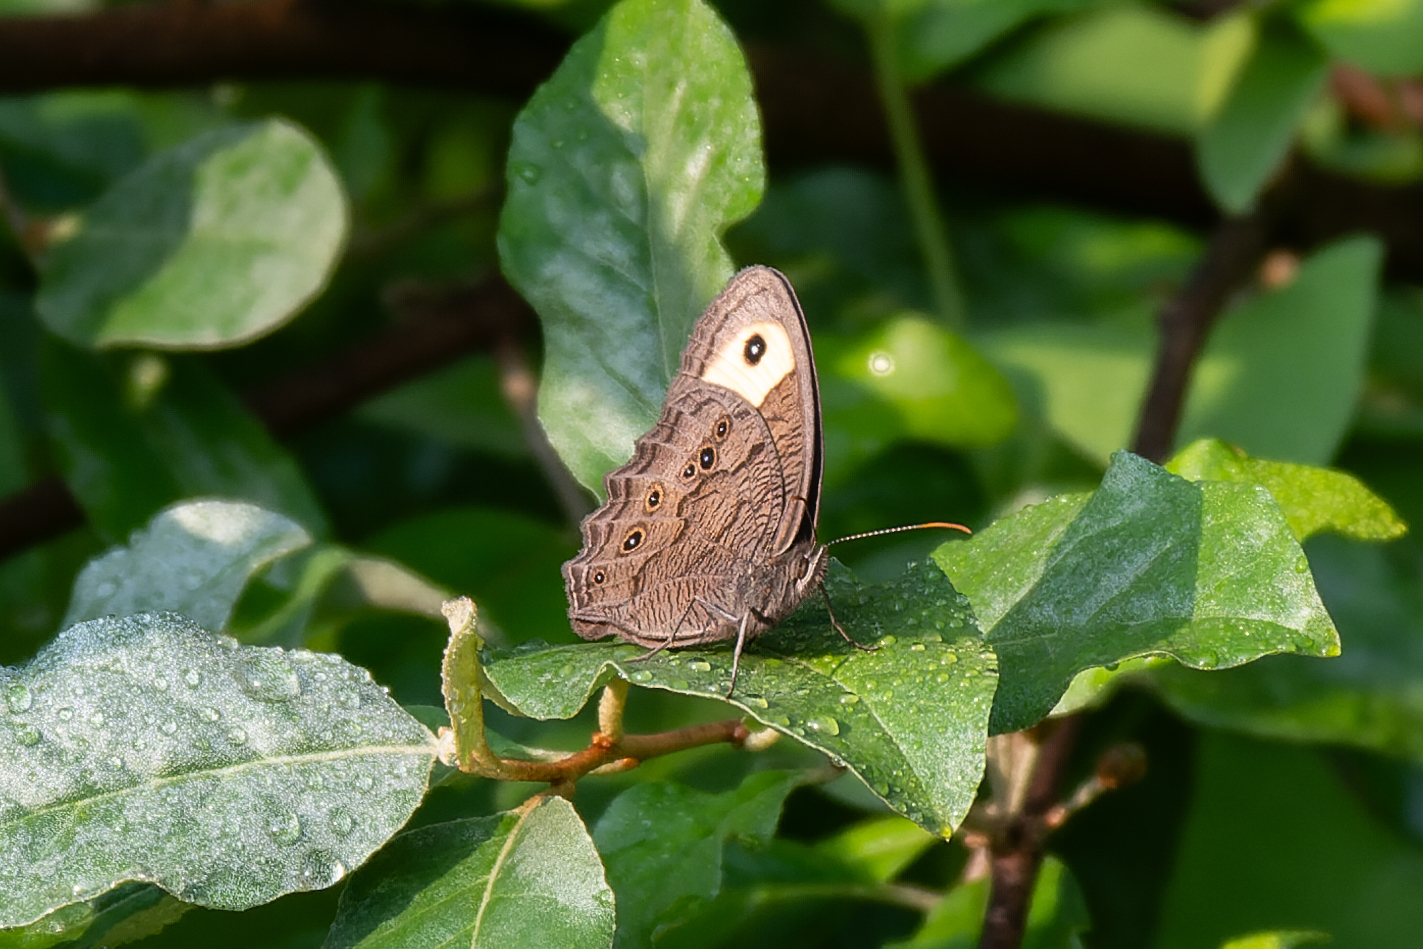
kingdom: Animalia
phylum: Arthropoda
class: Insecta
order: Lepidoptera
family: Nymphalidae
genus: Cercyonis
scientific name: Cercyonis pegala
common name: Common wood-nymph
